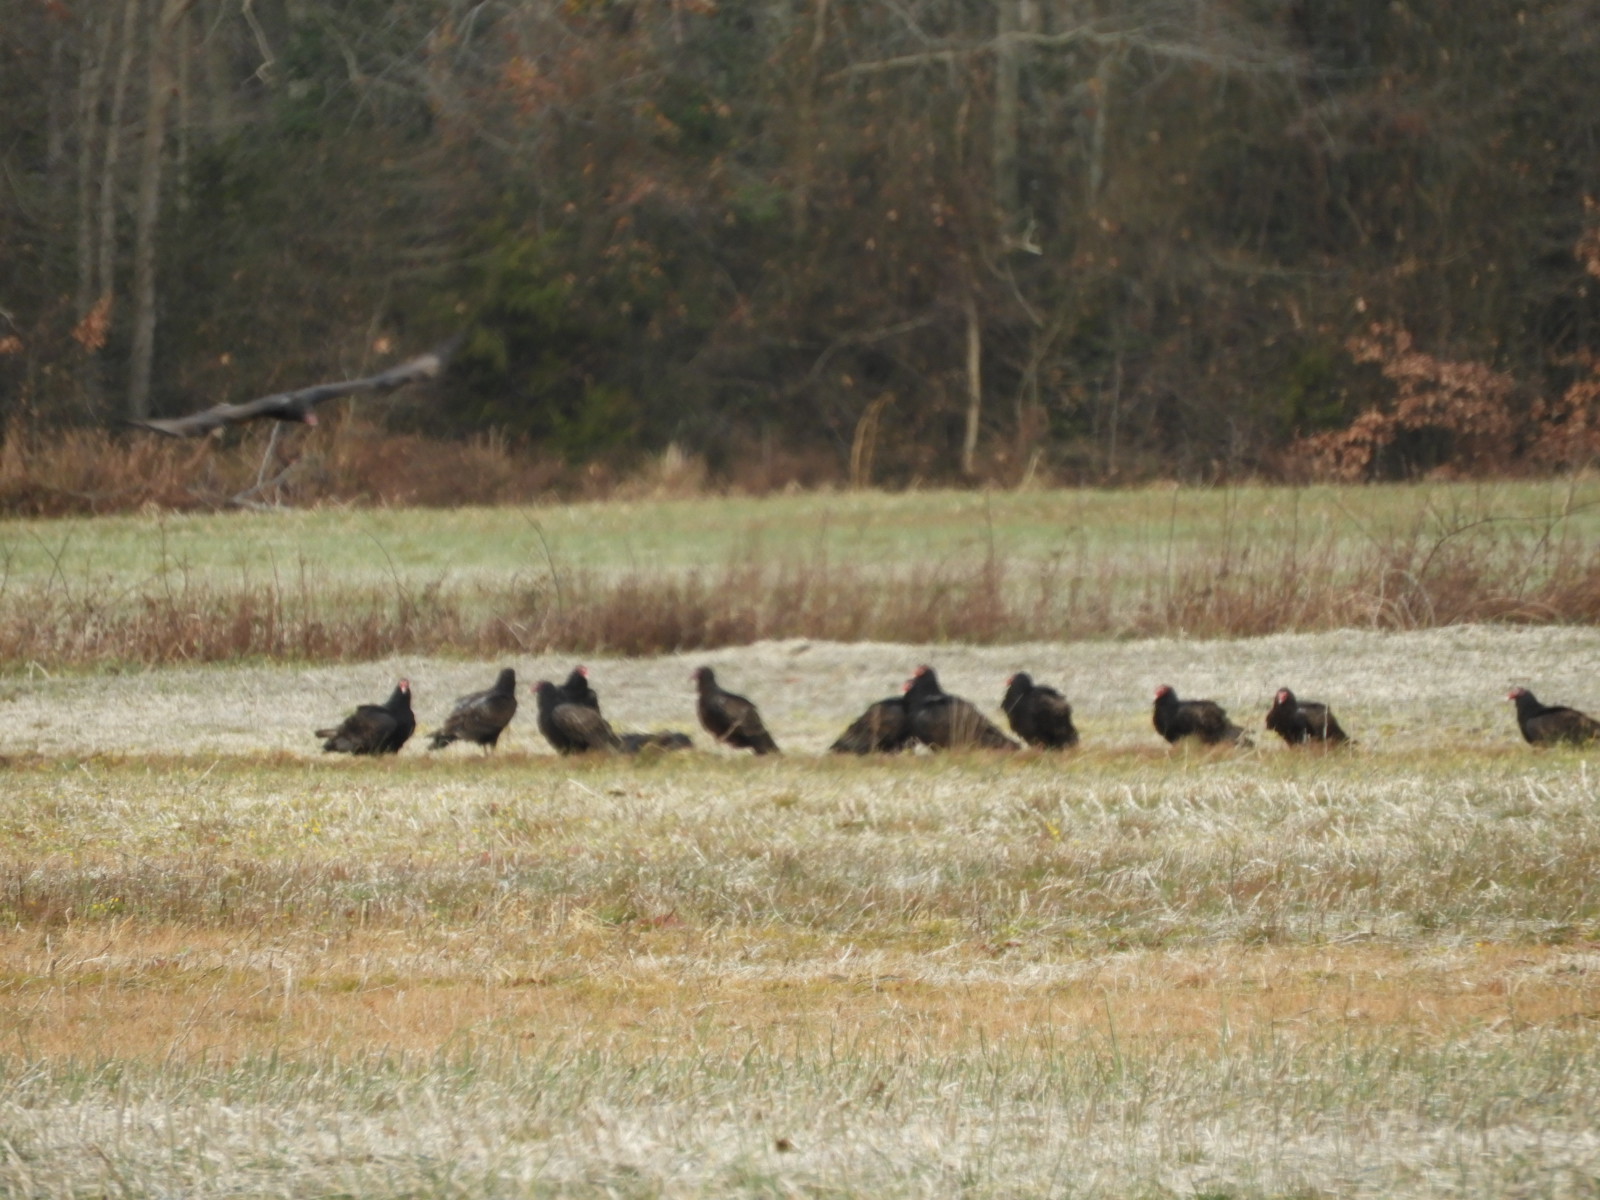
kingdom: Animalia
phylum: Chordata
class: Aves
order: Accipitriformes
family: Cathartidae
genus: Cathartes
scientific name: Cathartes aura
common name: Turkey vulture
